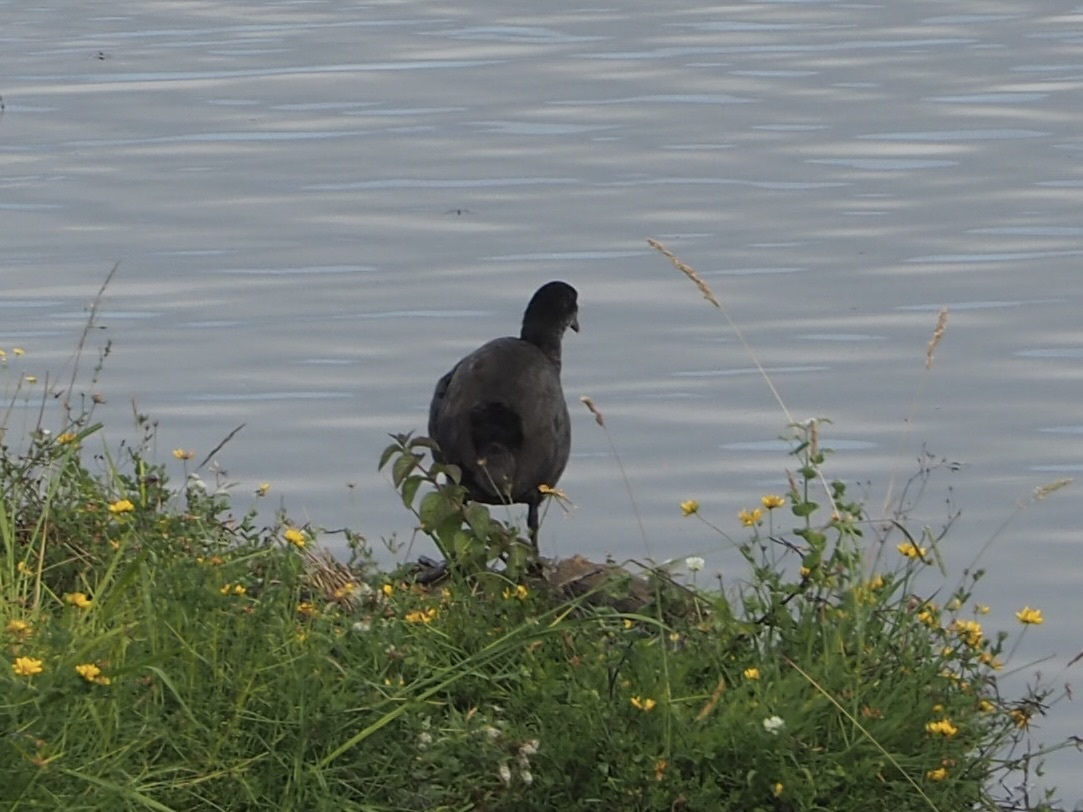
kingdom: Animalia
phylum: Chordata
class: Aves
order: Gruiformes
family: Rallidae
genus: Fulica
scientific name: Fulica atra
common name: Eurasian coot
